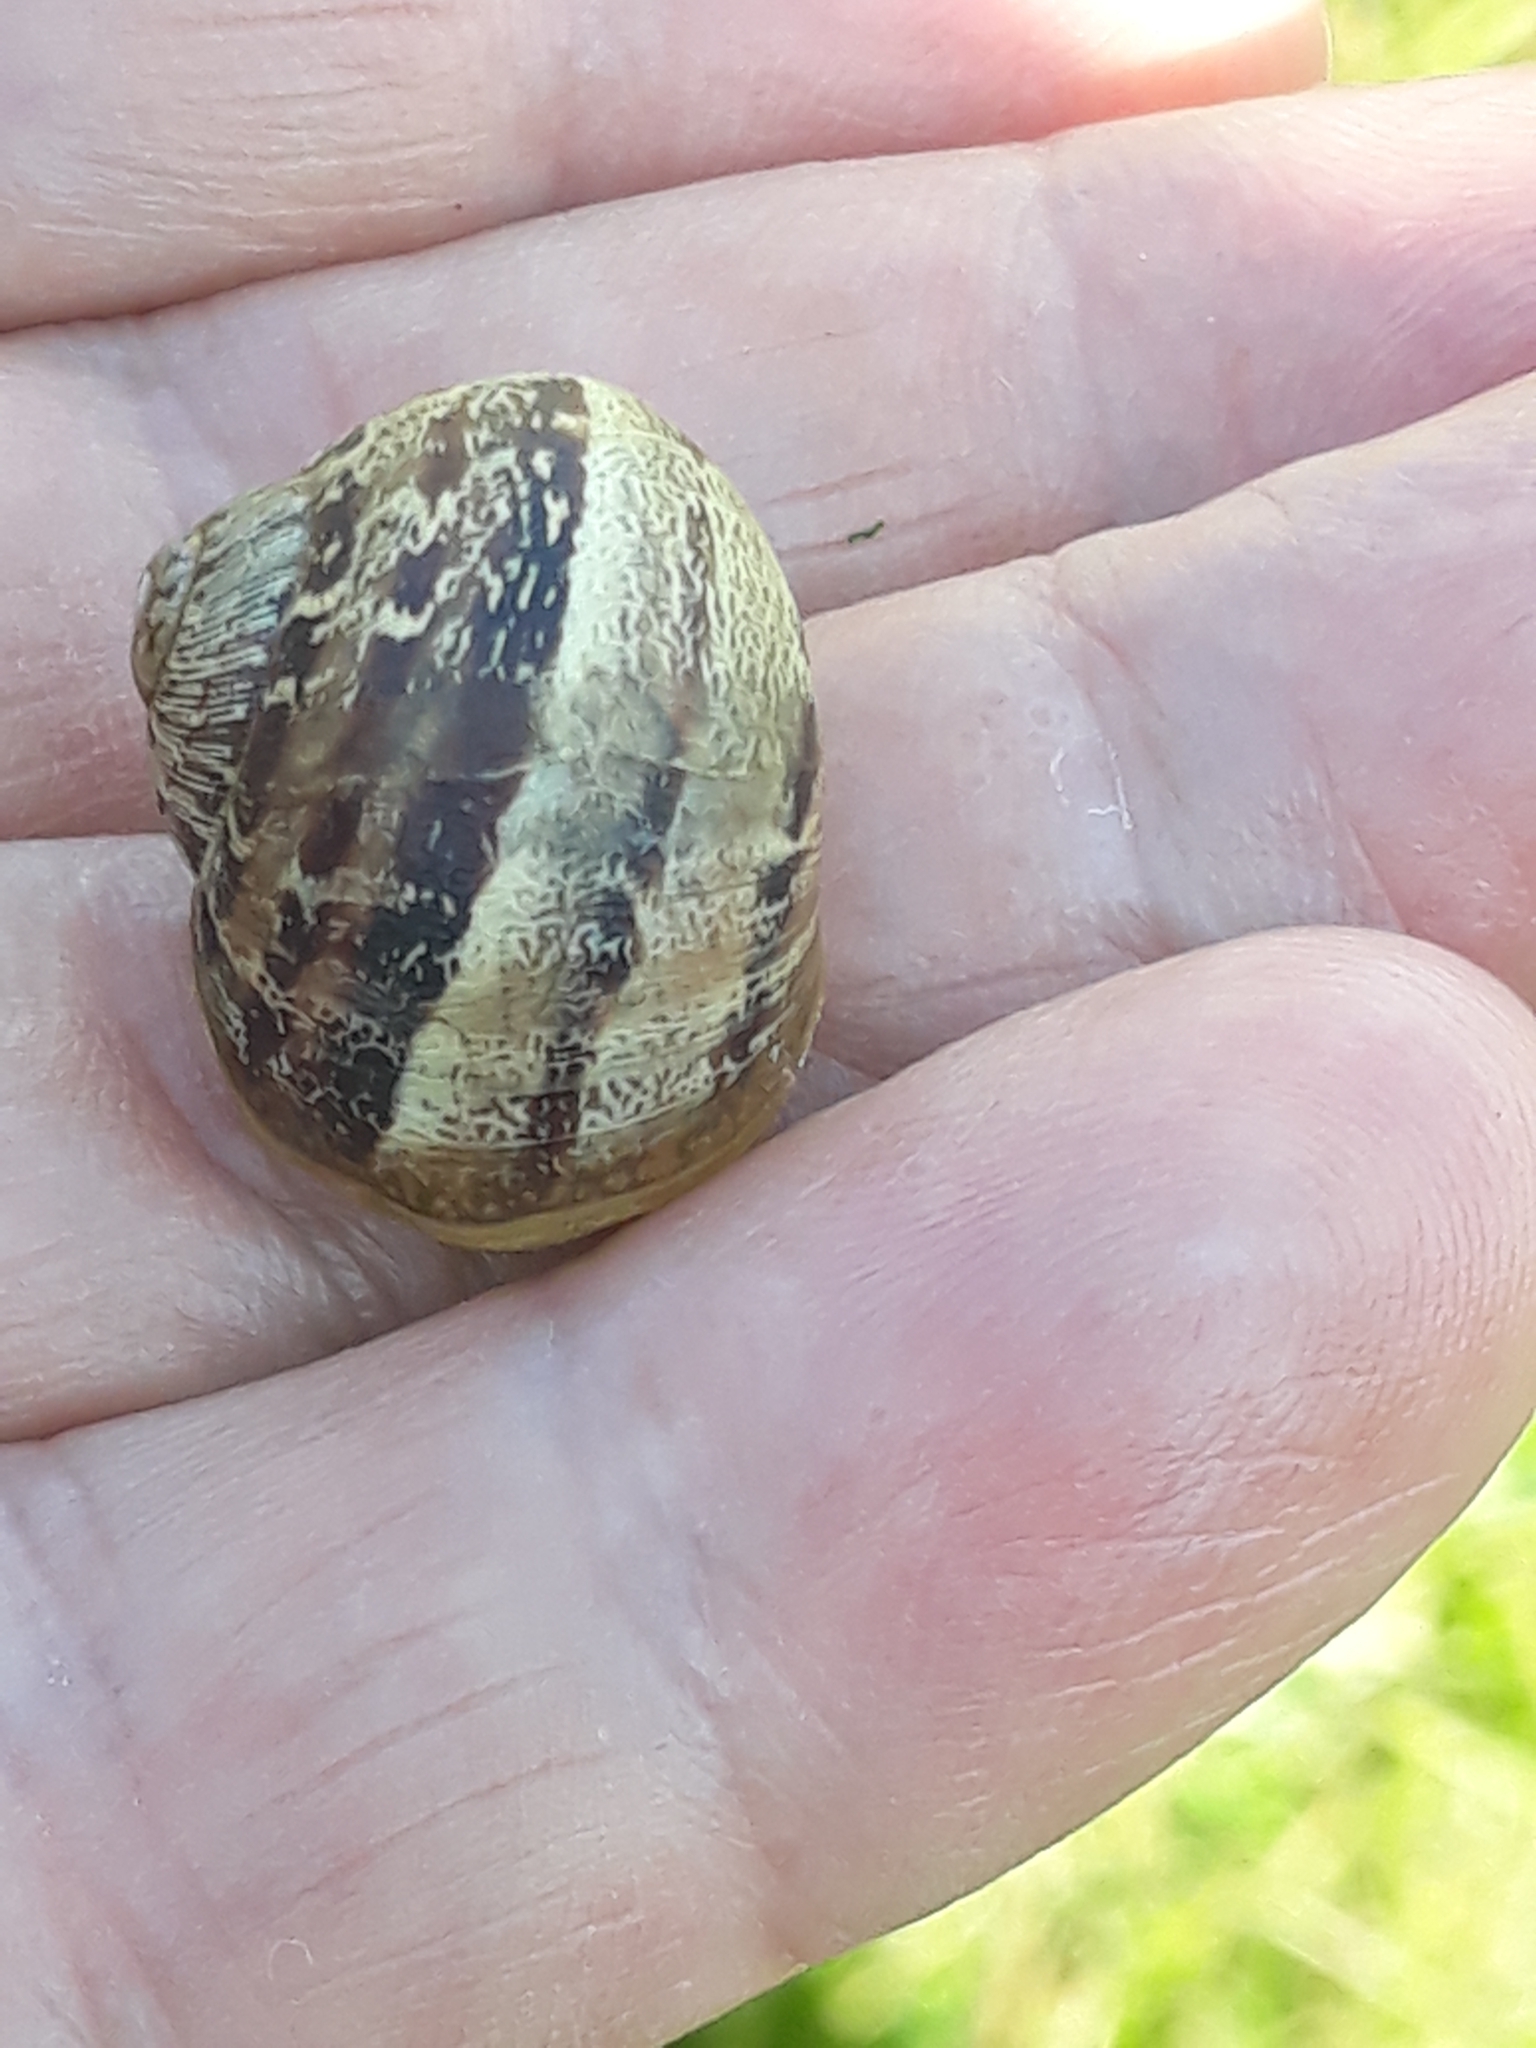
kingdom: Animalia
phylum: Mollusca
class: Gastropoda
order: Stylommatophora
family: Helicidae
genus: Cornu
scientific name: Cornu aspersum
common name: Brown garden snail
